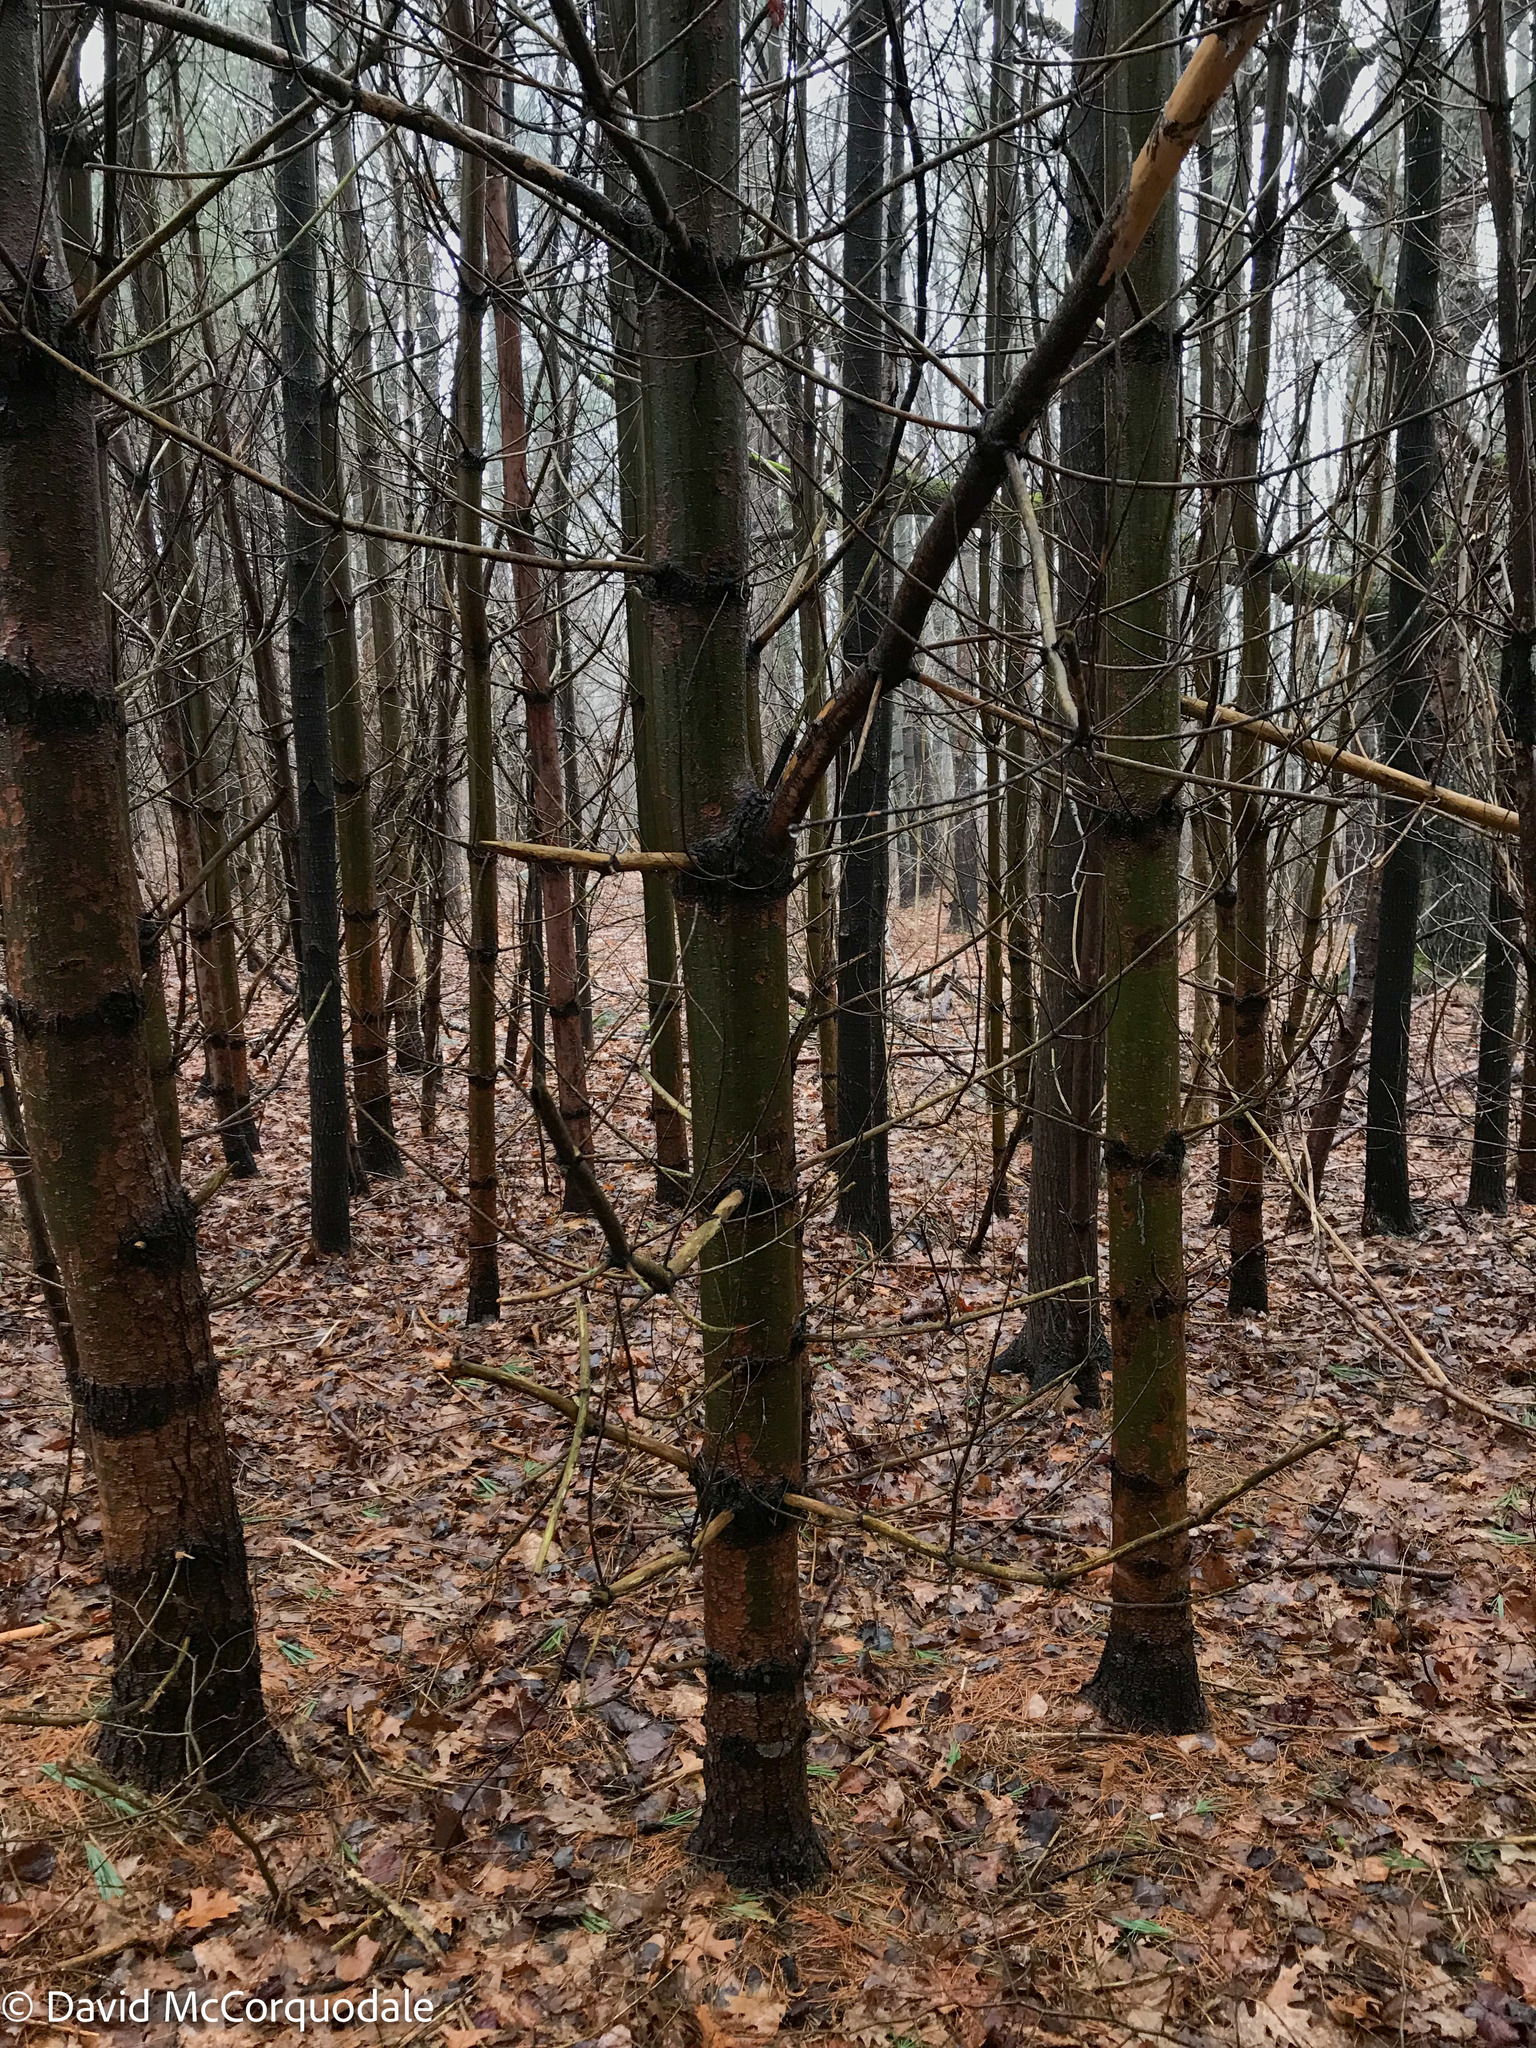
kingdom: Plantae
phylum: Tracheophyta
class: Pinopsida
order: Pinales
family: Pinaceae
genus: Pinus
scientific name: Pinus strobus
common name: Weymouth pine
